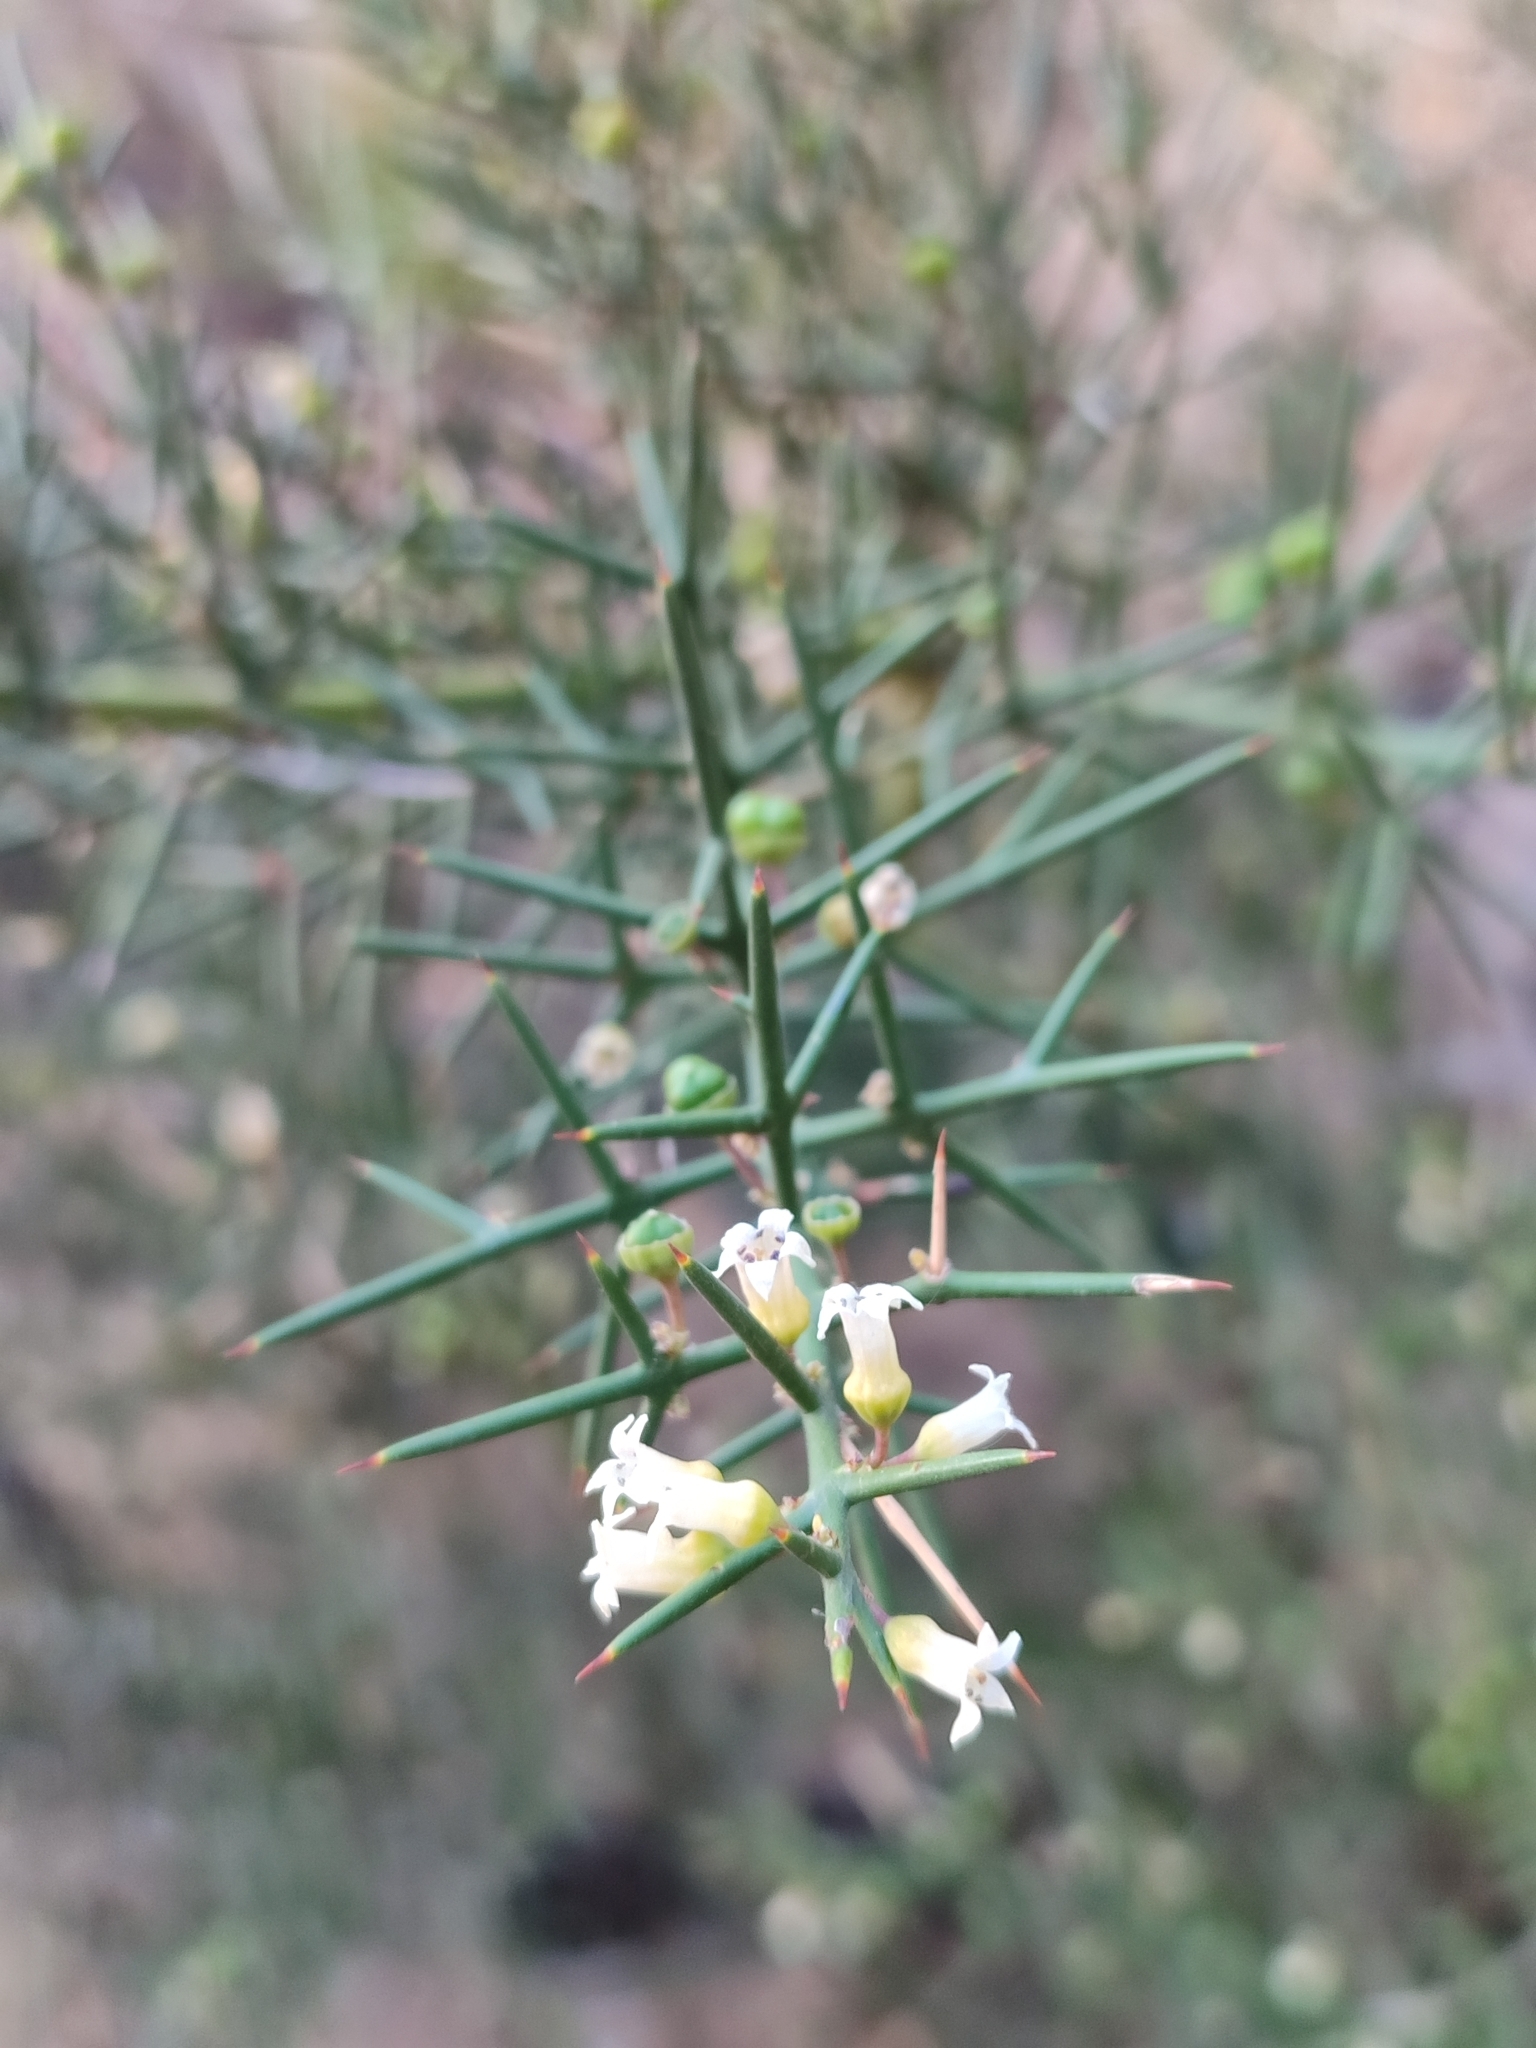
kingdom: Plantae
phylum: Tracheophyta
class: Magnoliopsida
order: Rosales
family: Rhamnaceae
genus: Colletia
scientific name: Colletia spinosissima
